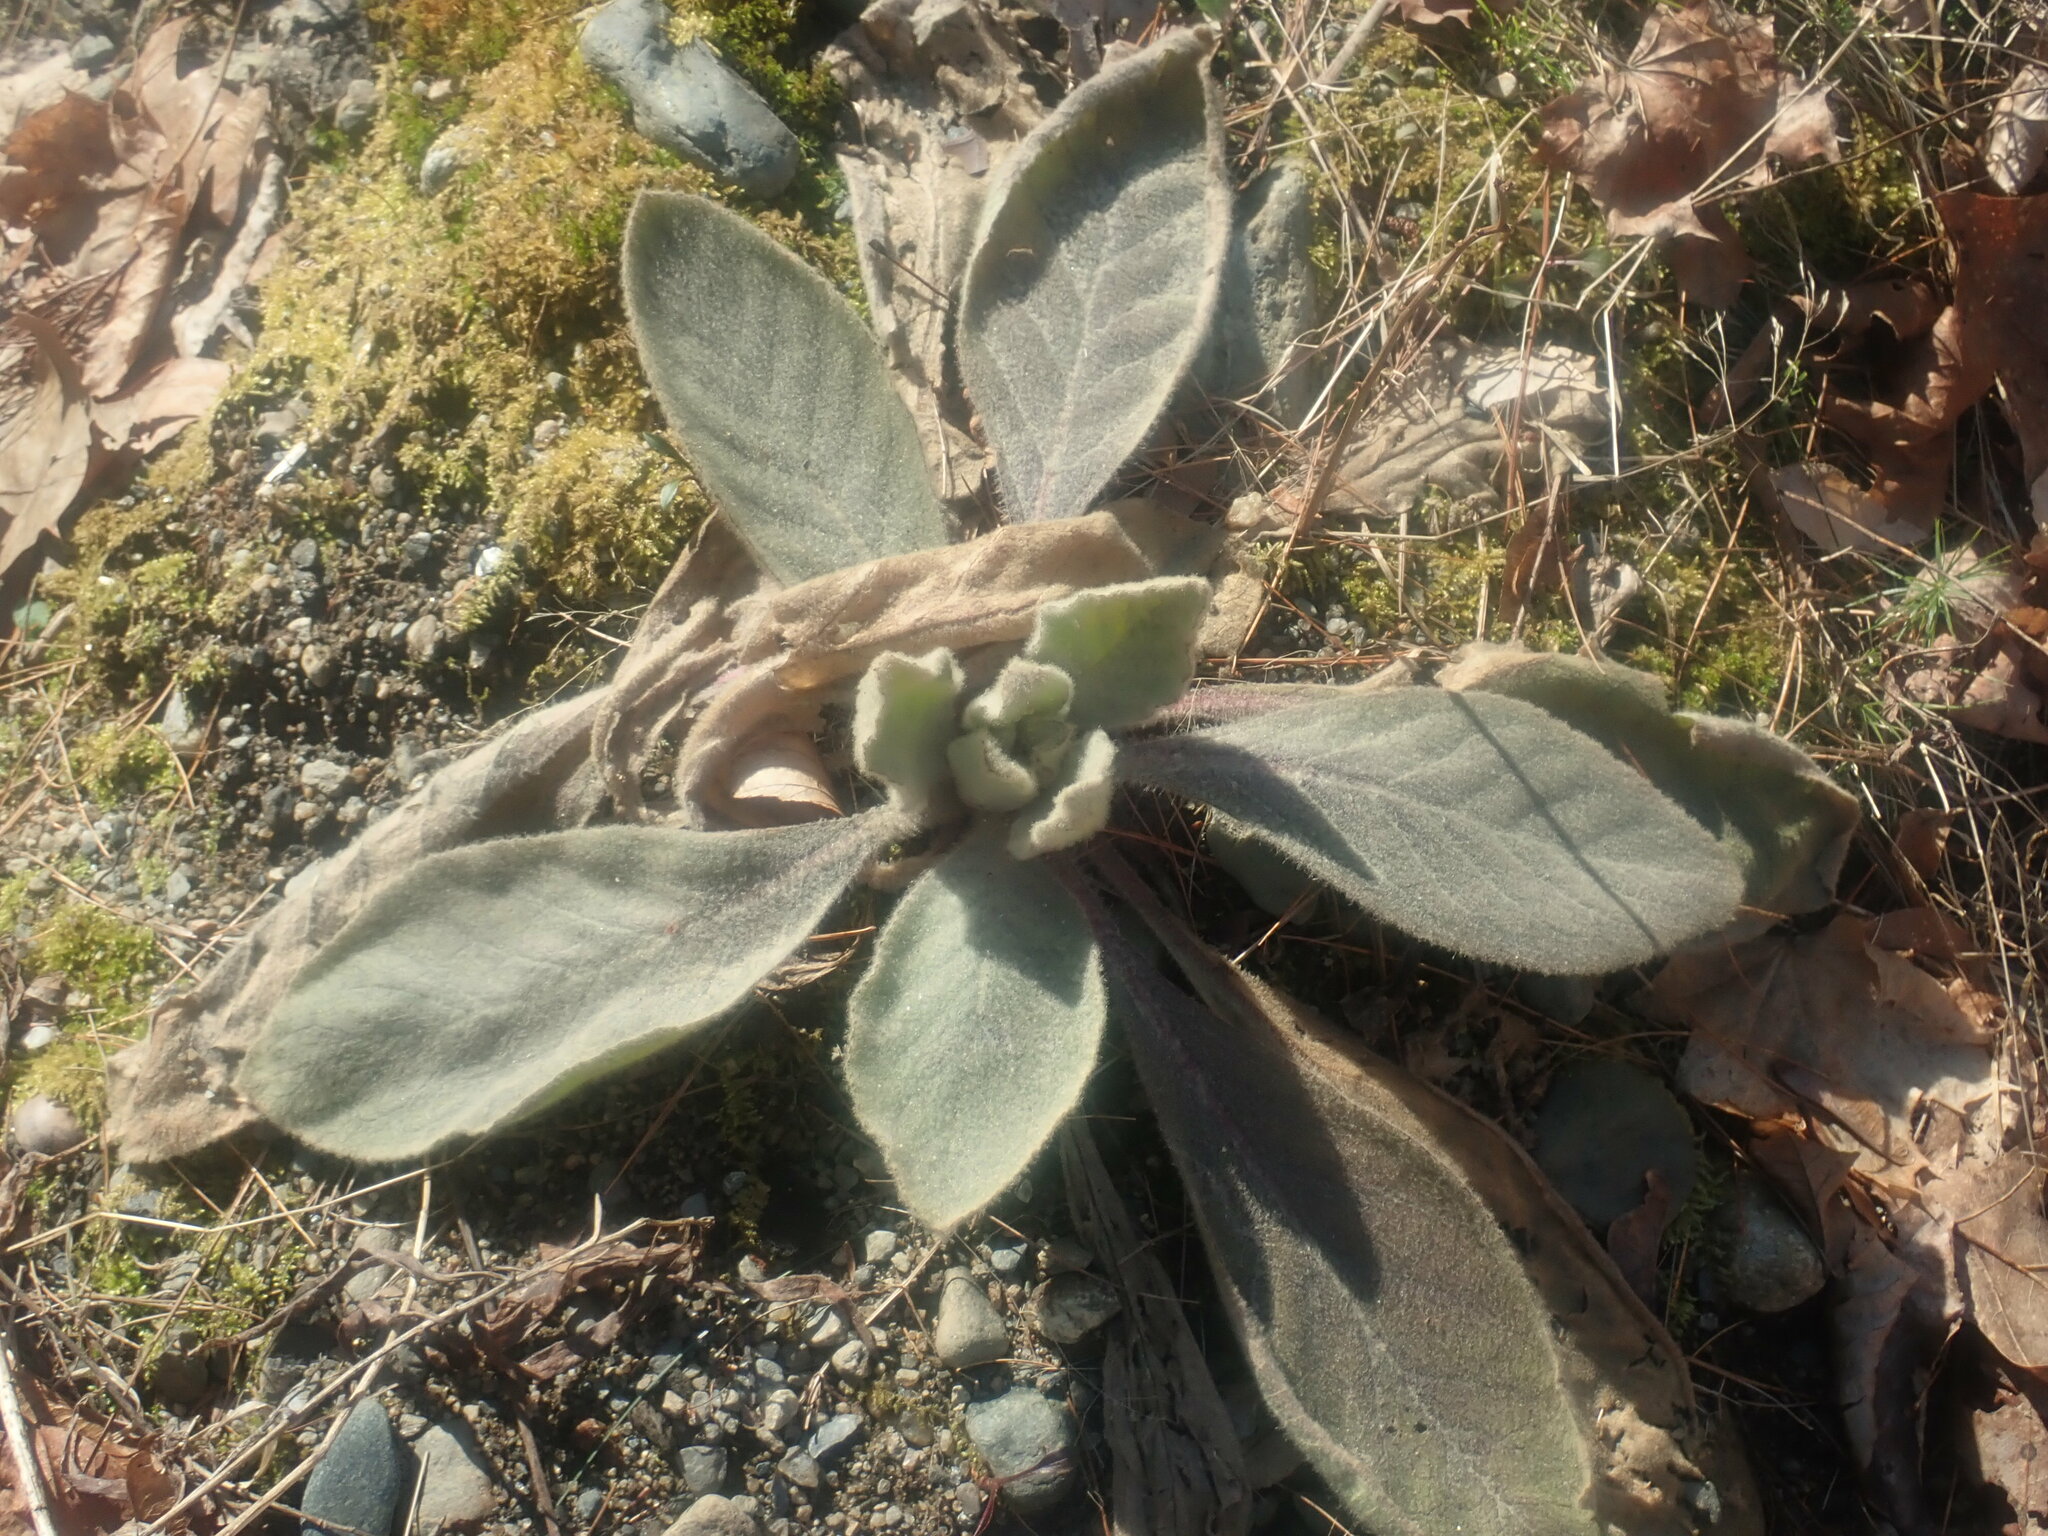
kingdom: Plantae
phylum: Tracheophyta
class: Magnoliopsida
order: Lamiales
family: Scrophulariaceae
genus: Verbascum
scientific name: Verbascum thapsus
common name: Common mullein
